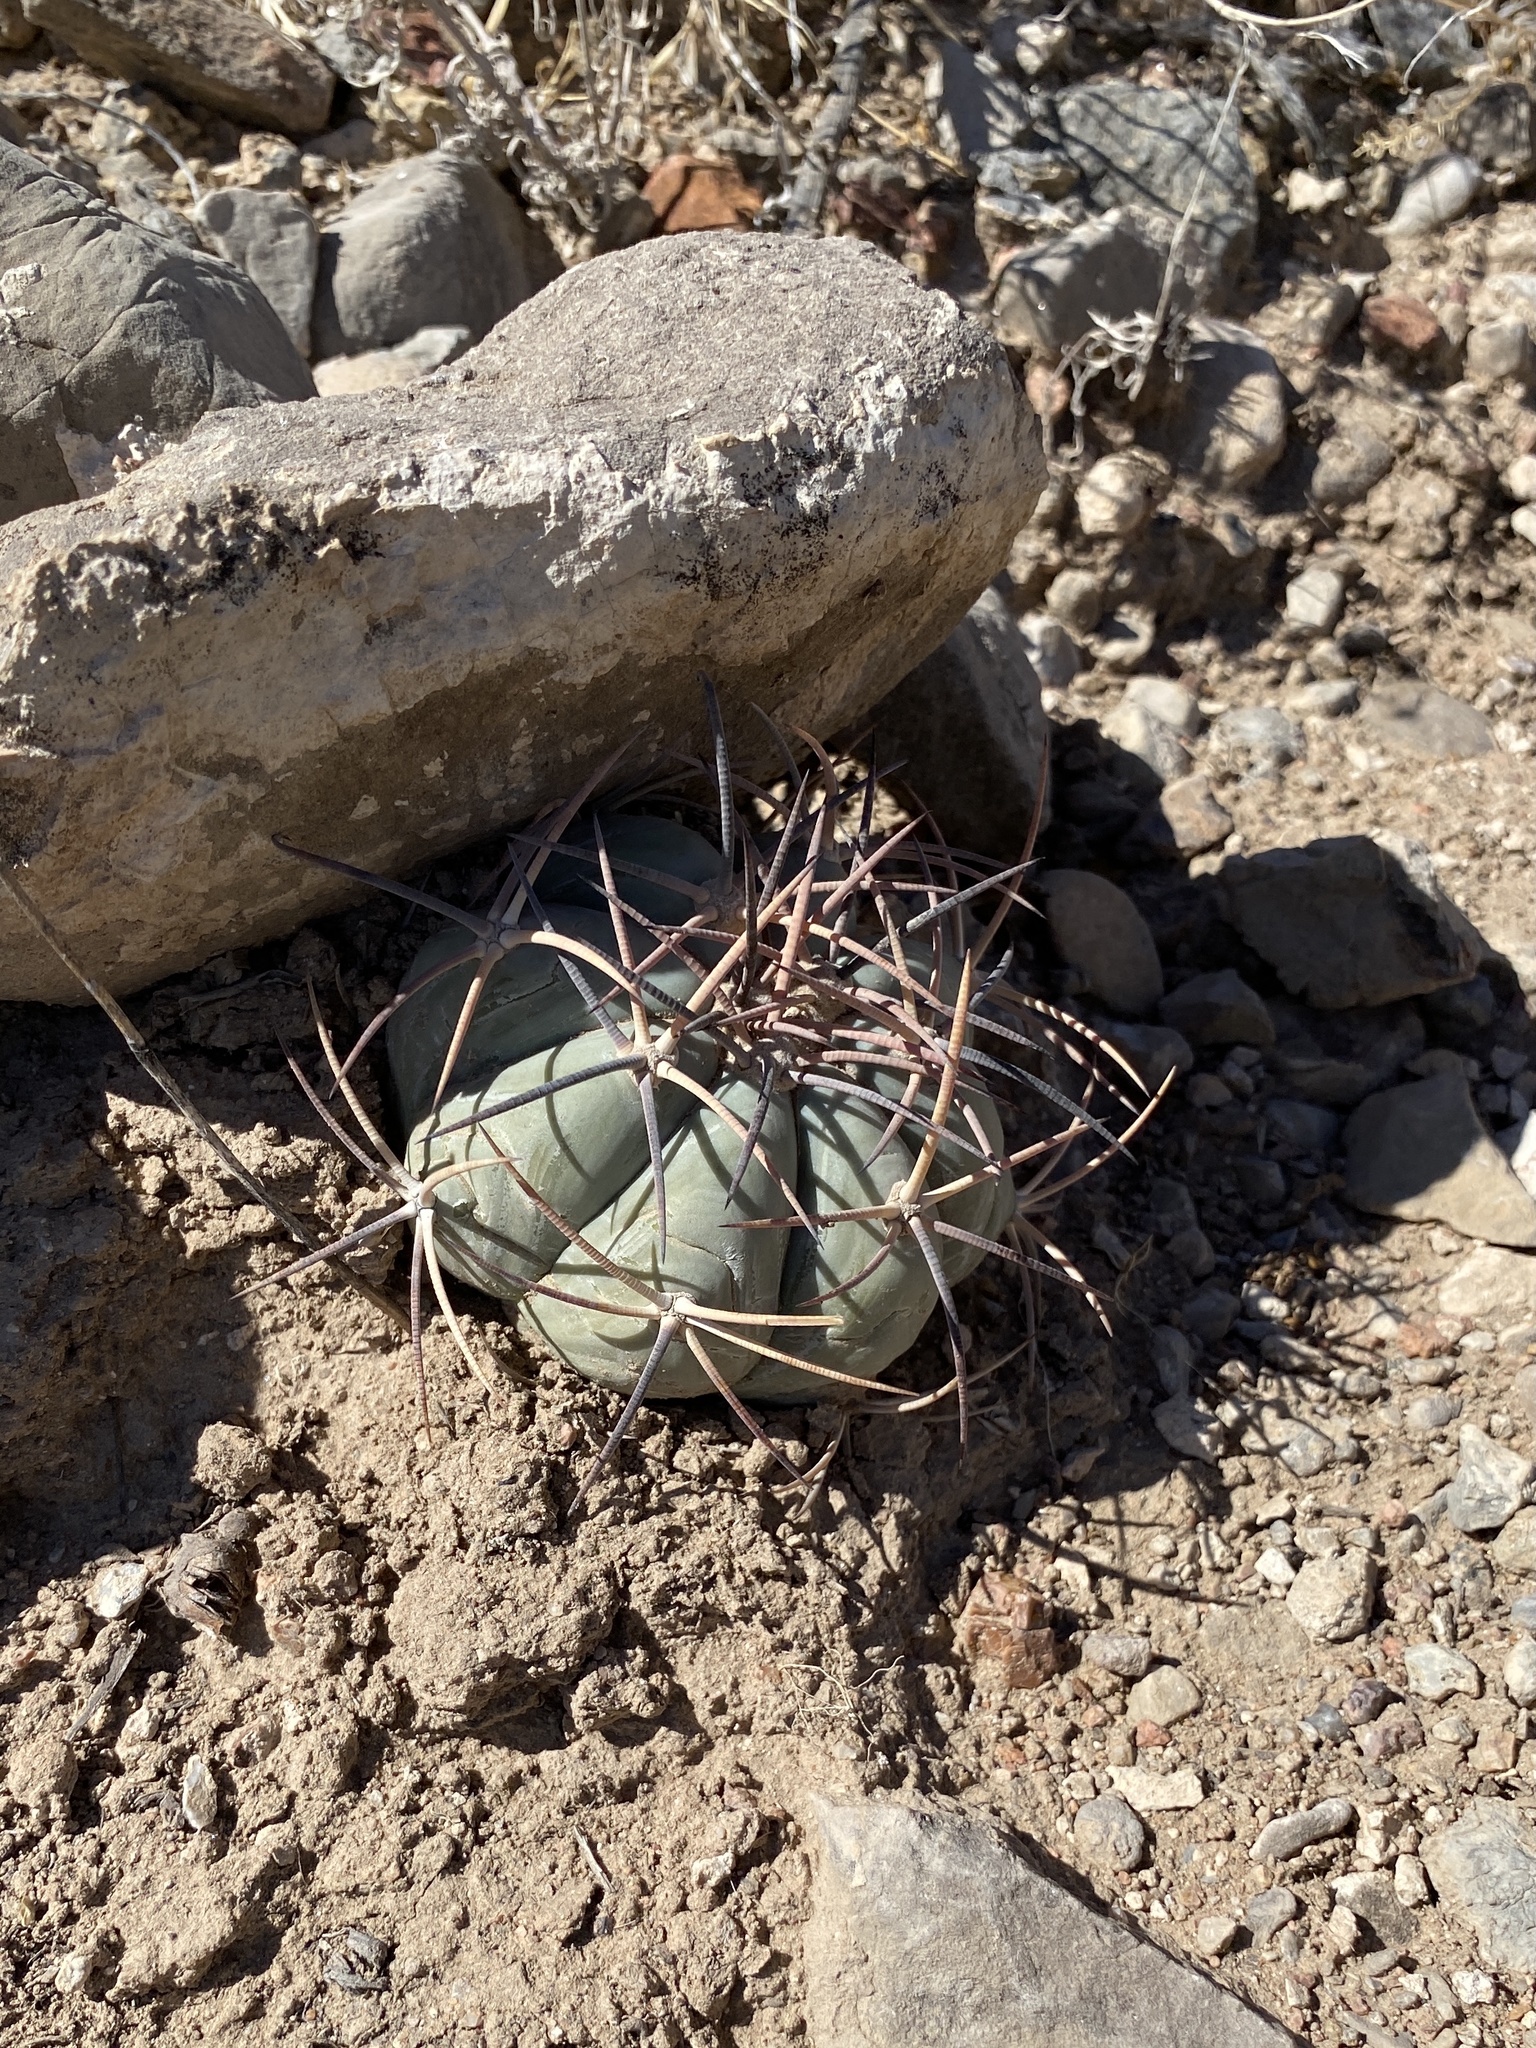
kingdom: Plantae
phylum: Tracheophyta
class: Magnoliopsida
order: Caryophyllales
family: Cactaceae
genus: Echinocactus
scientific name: Echinocactus horizonthalonius
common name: Devilshead
